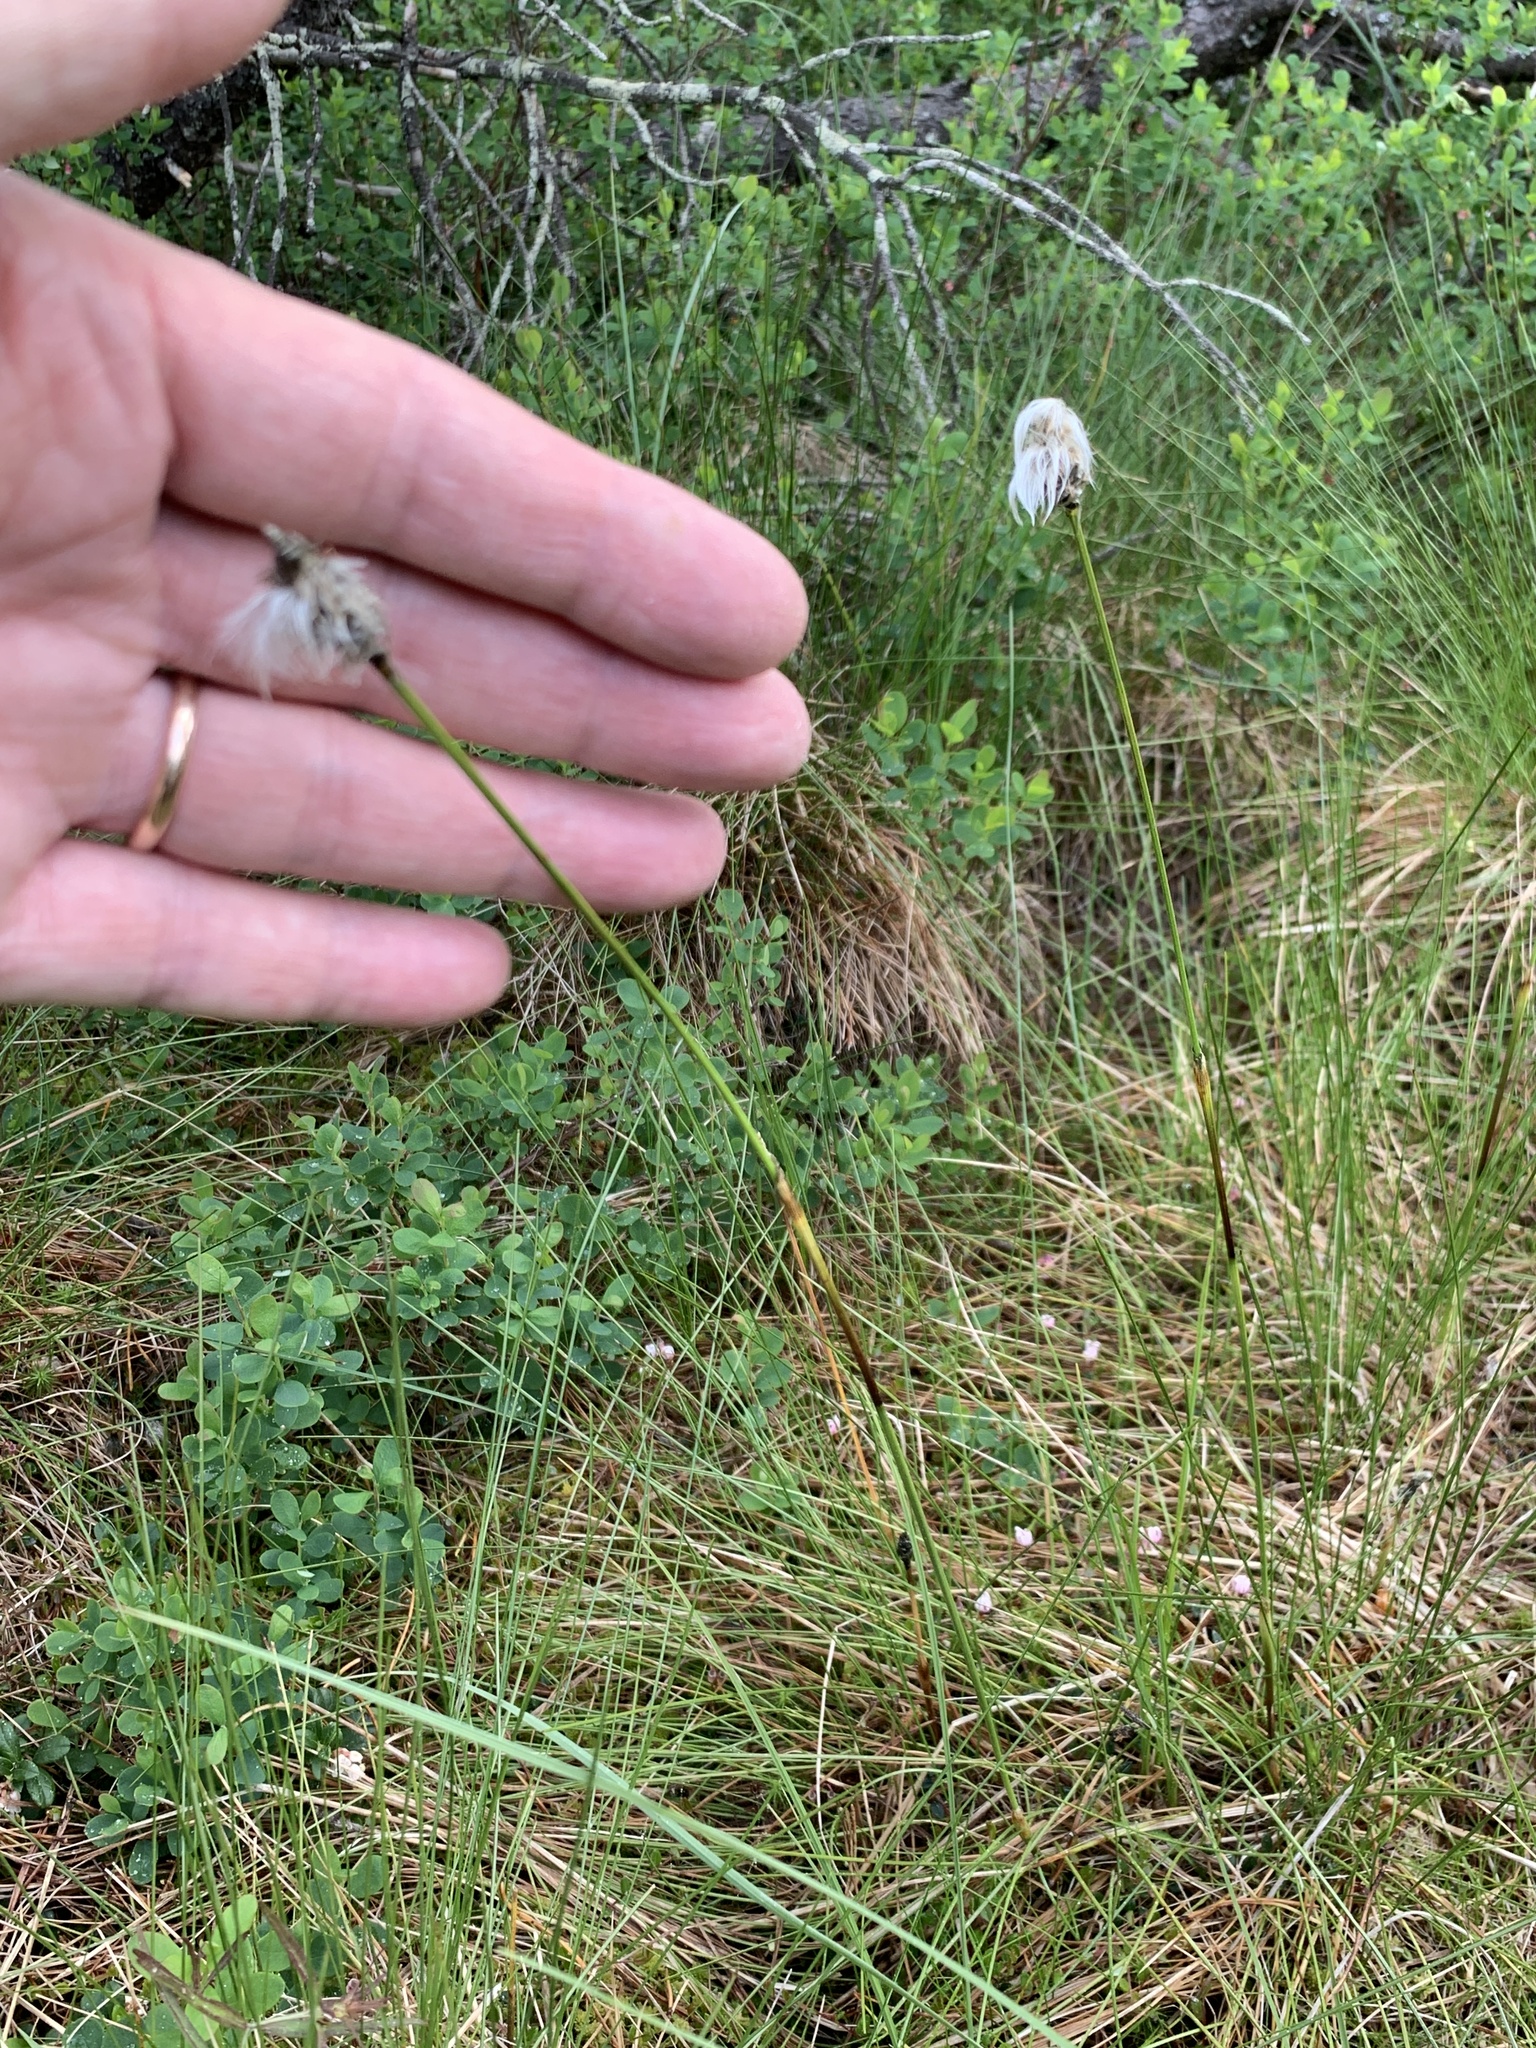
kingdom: Plantae
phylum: Tracheophyta
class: Liliopsida
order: Poales
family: Cyperaceae
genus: Eriophorum
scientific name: Eriophorum vaginatum
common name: Hare's-tail cottongrass
